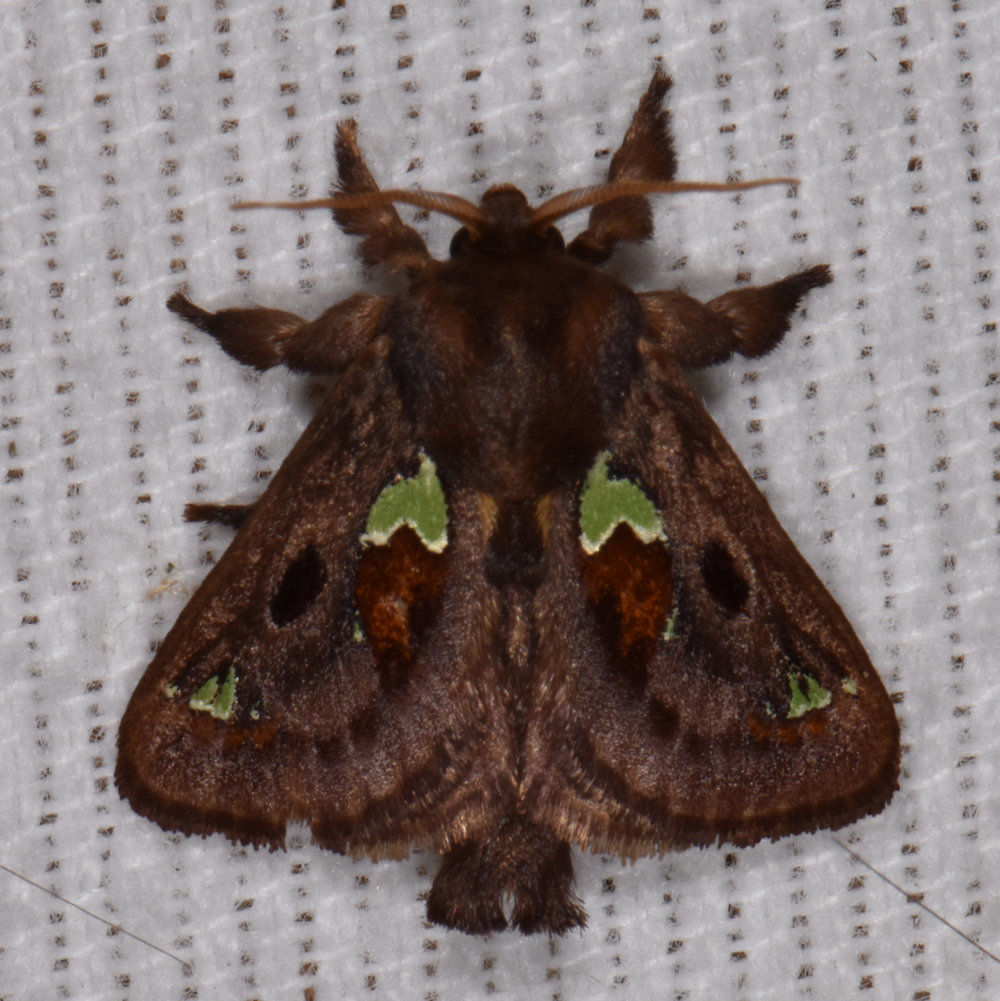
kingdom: Animalia
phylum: Arthropoda
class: Insecta
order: Lepidoptera
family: Limacodidae
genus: Euclea
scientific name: Euclea delphinii
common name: Spiny oak-slug moth
